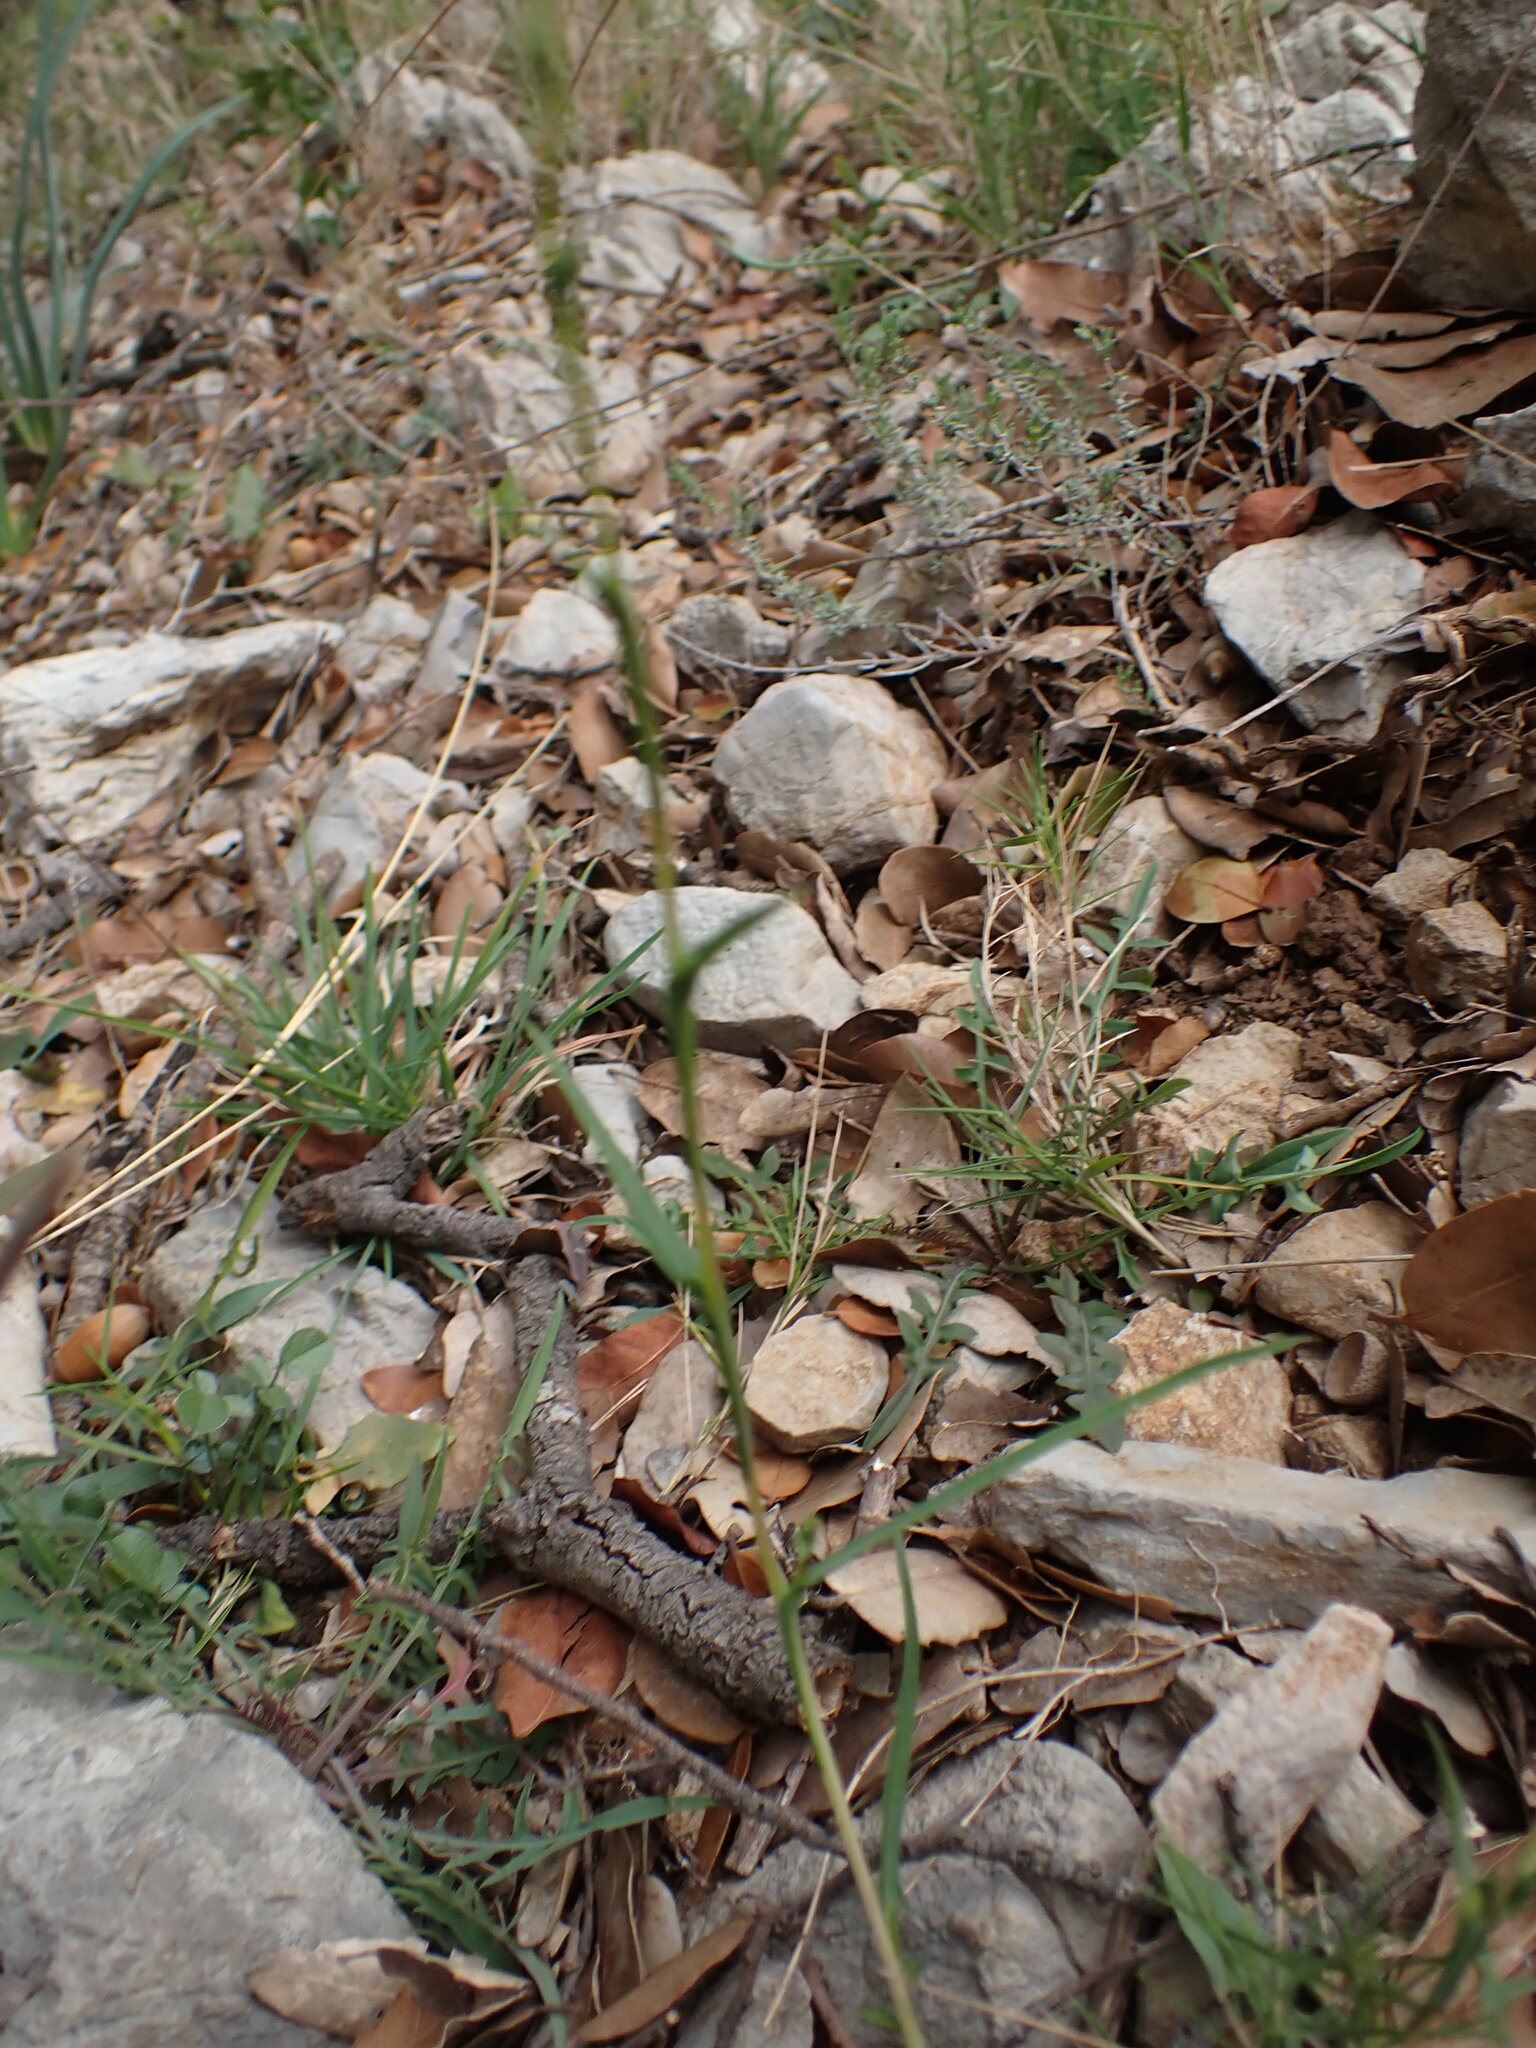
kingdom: Plantae
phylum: Tracheophyta
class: Magnoliopsida
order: Asterales
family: Asteraceae
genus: Lactuca
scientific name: Lactuca viminea
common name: Pliant lettuce
